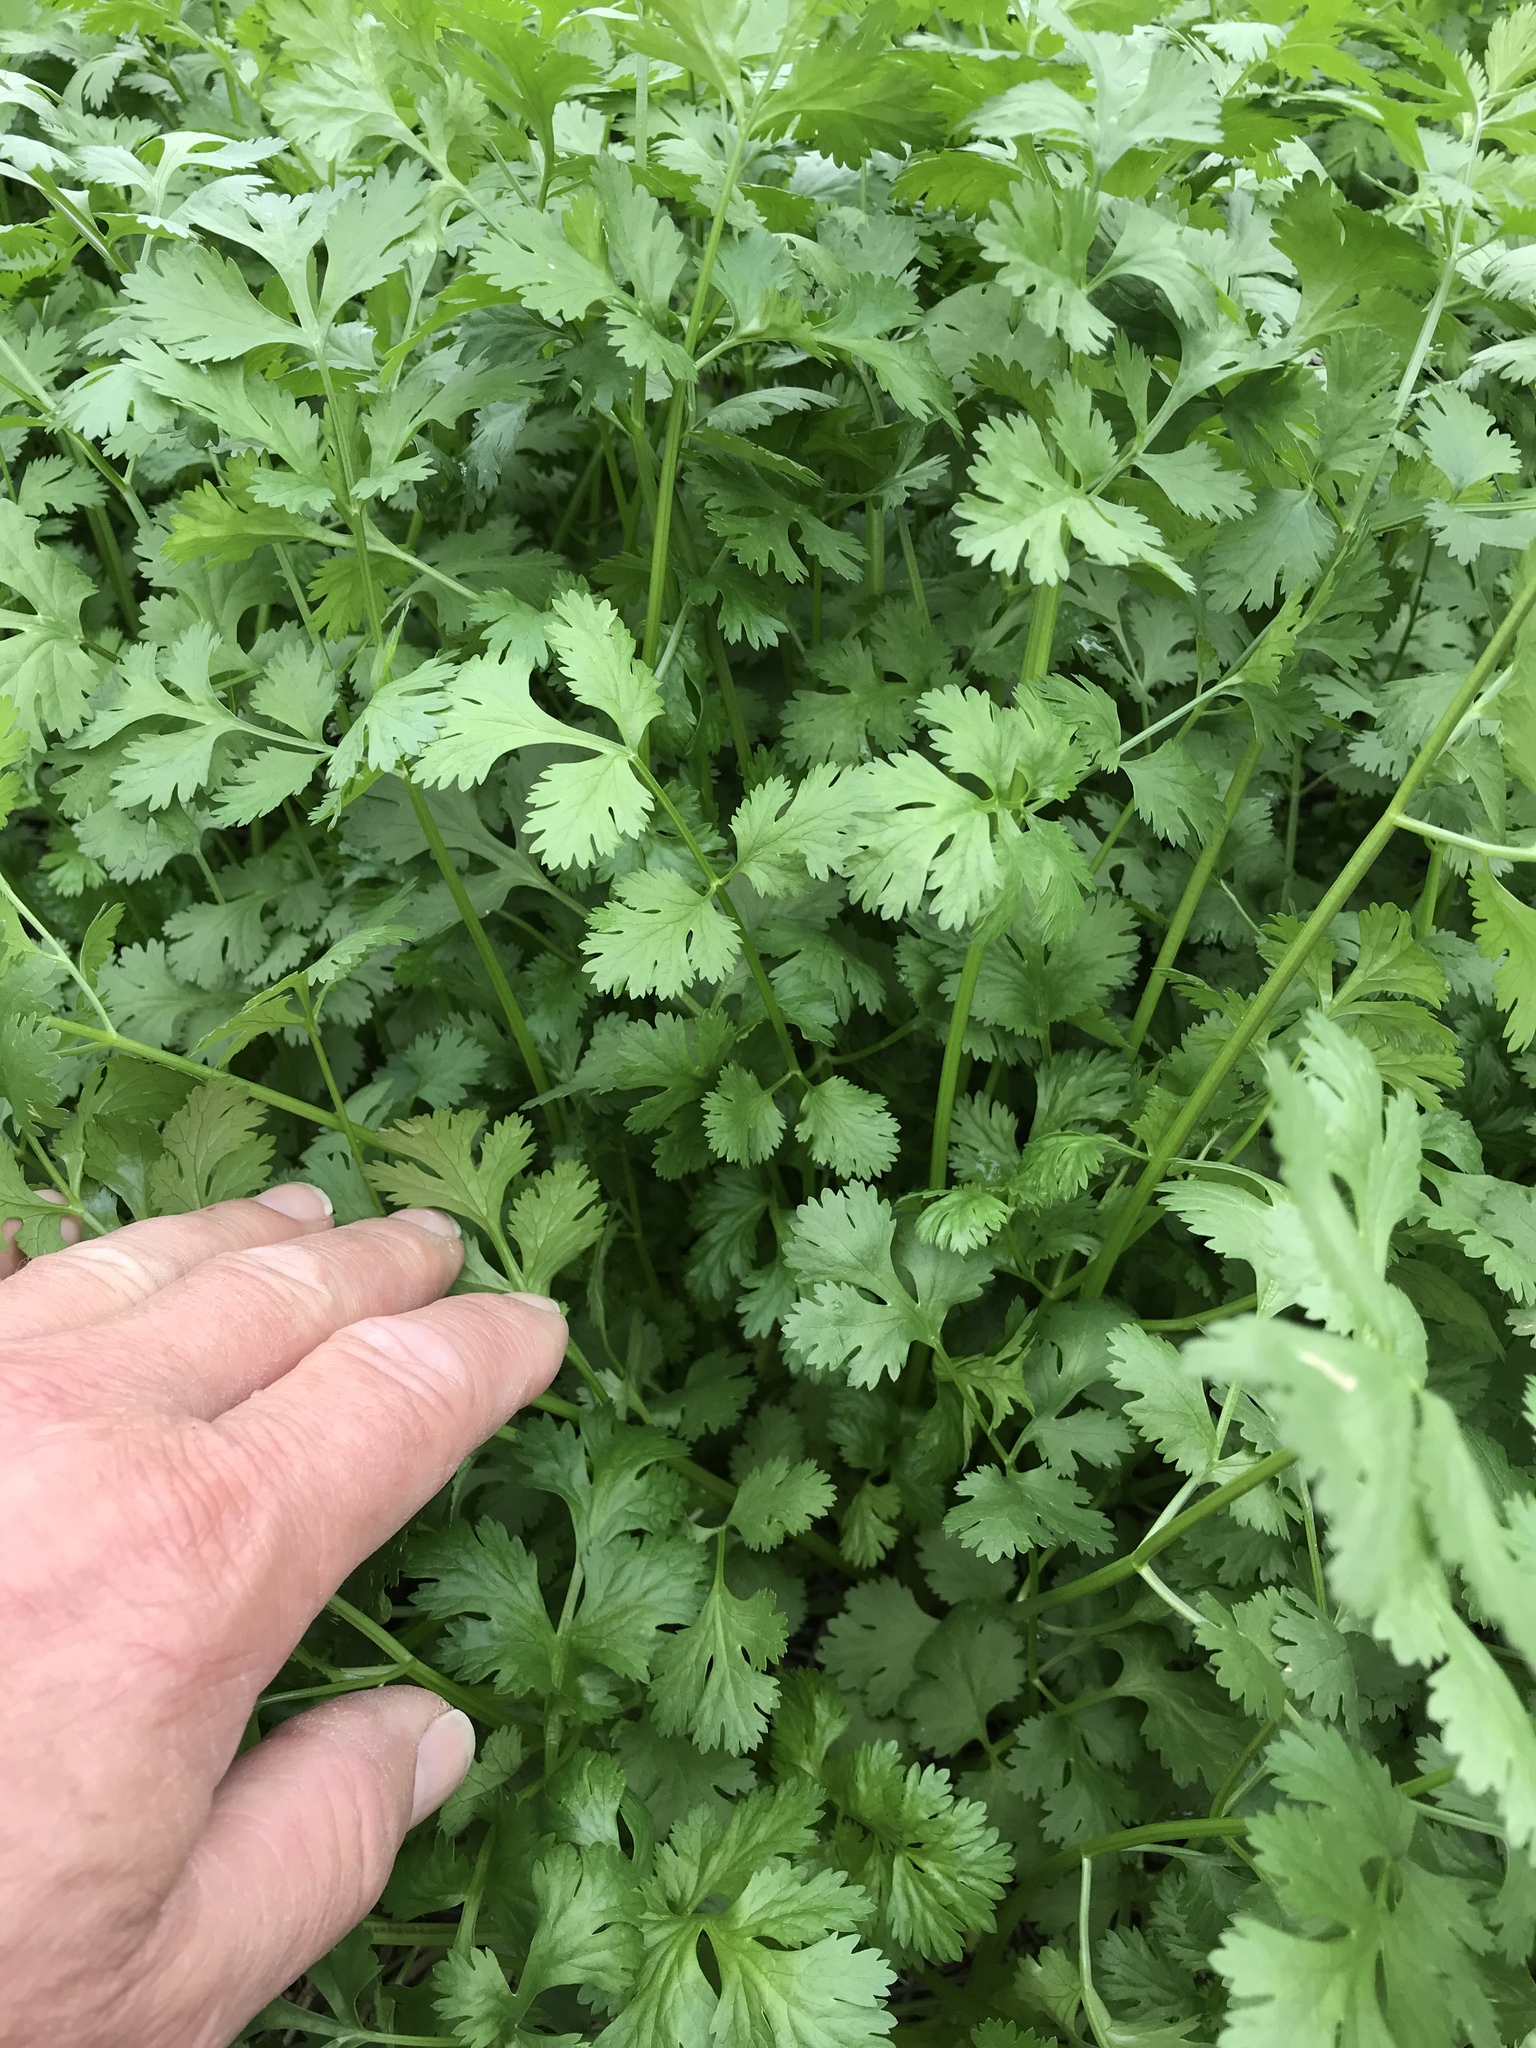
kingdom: Plantae
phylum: Tracheophyta
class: Magnoliopsida
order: Apiales
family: Apiaceae
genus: Coriandrum
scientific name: Coriandrum sativum
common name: Coriander
